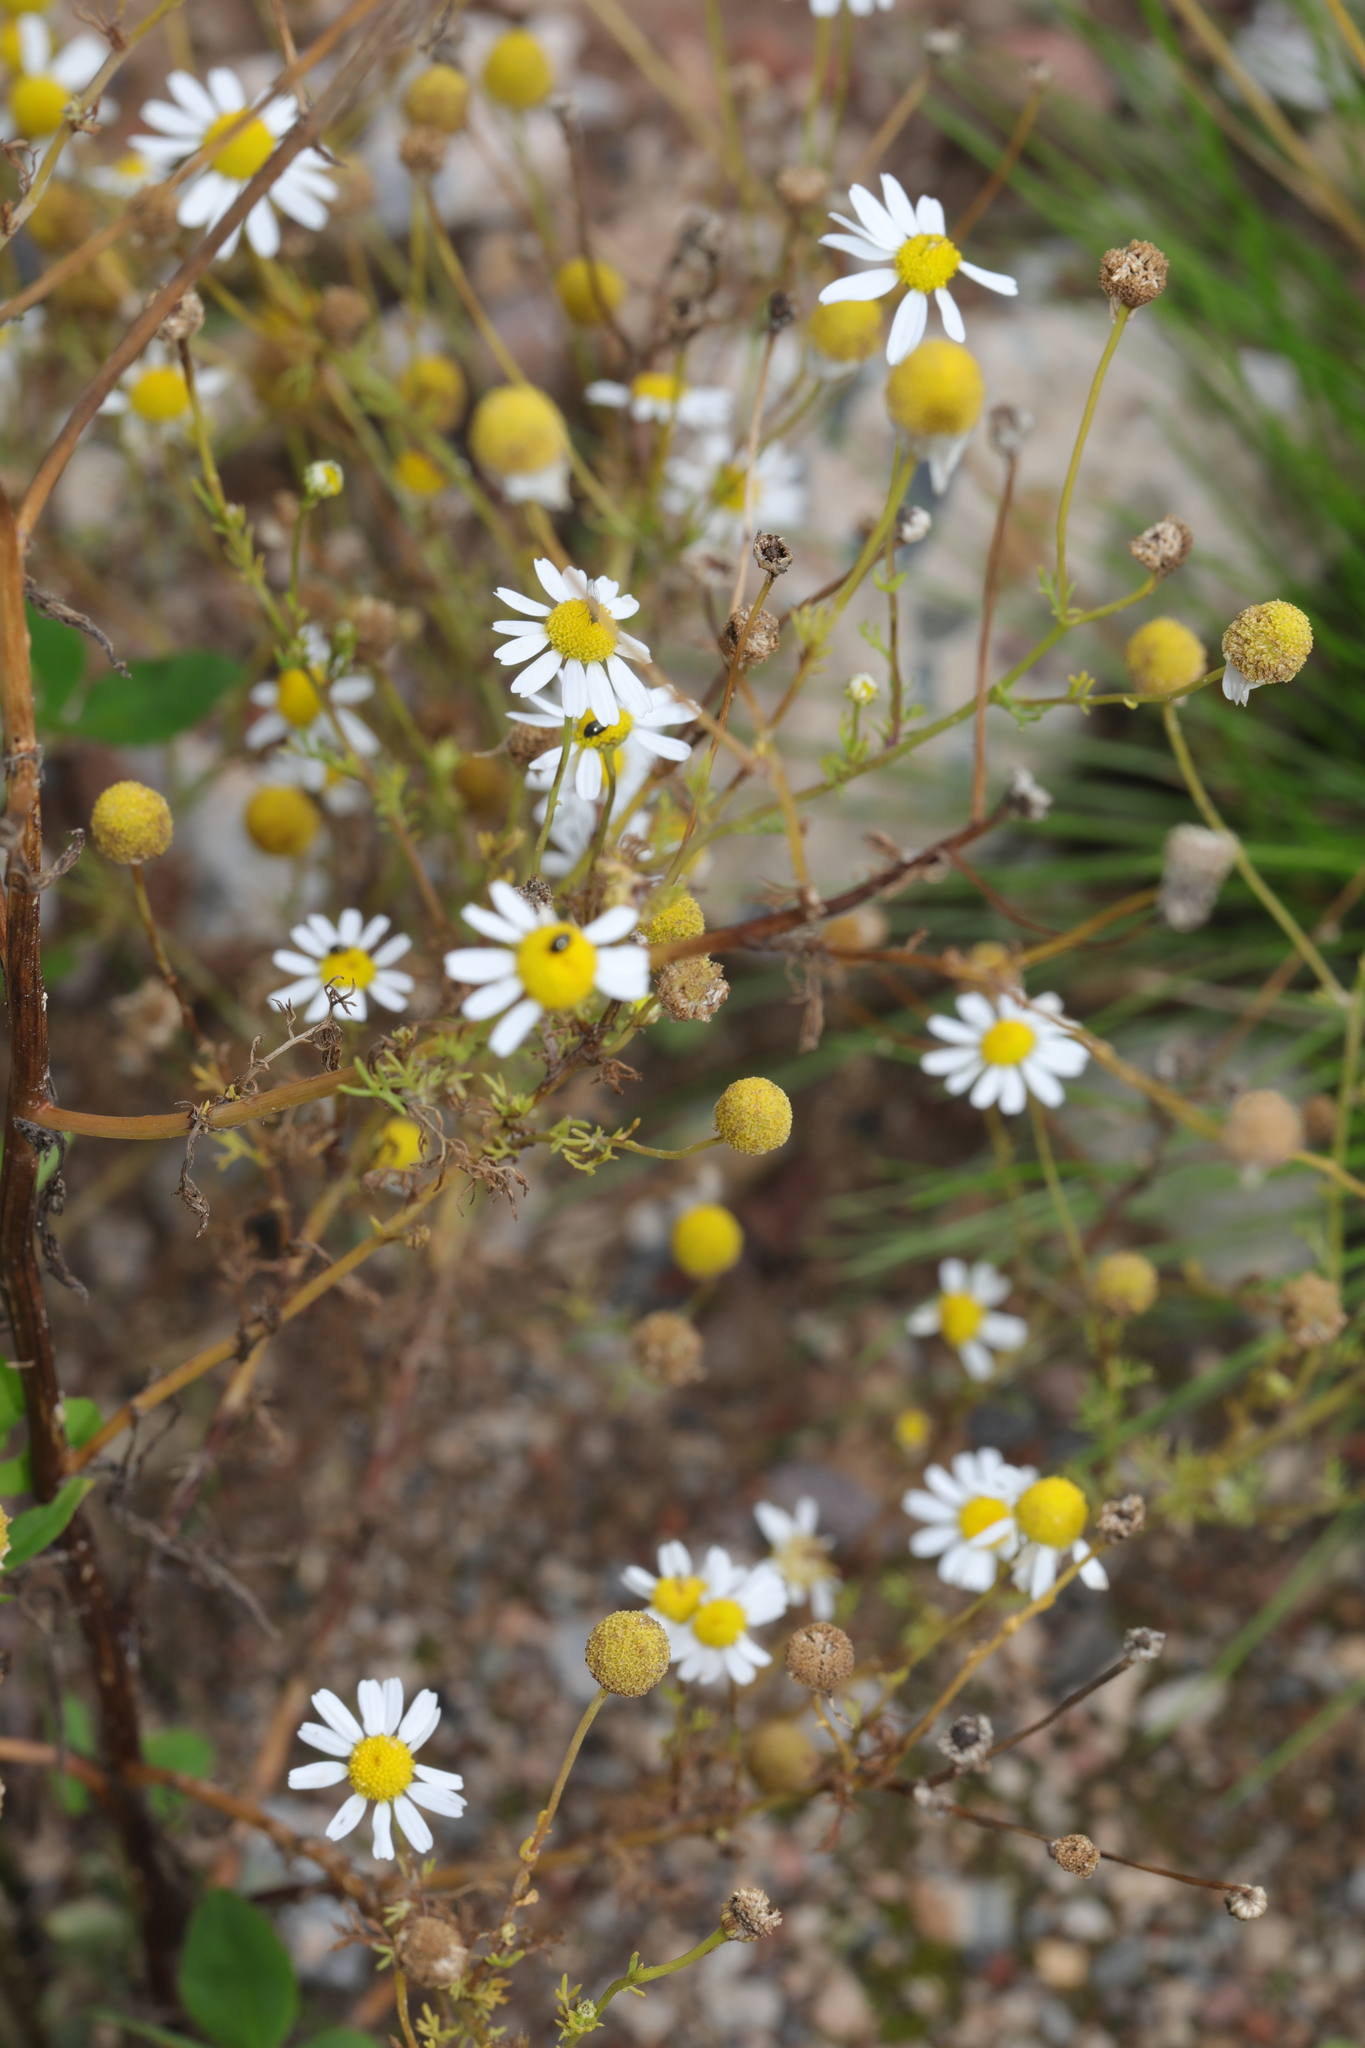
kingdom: Plantae
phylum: Tracheophyta
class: Magnoliopsida
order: Asterales
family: Asteraceae
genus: Matricaria
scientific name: Matricaria chamomilla
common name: Scented mayweed
